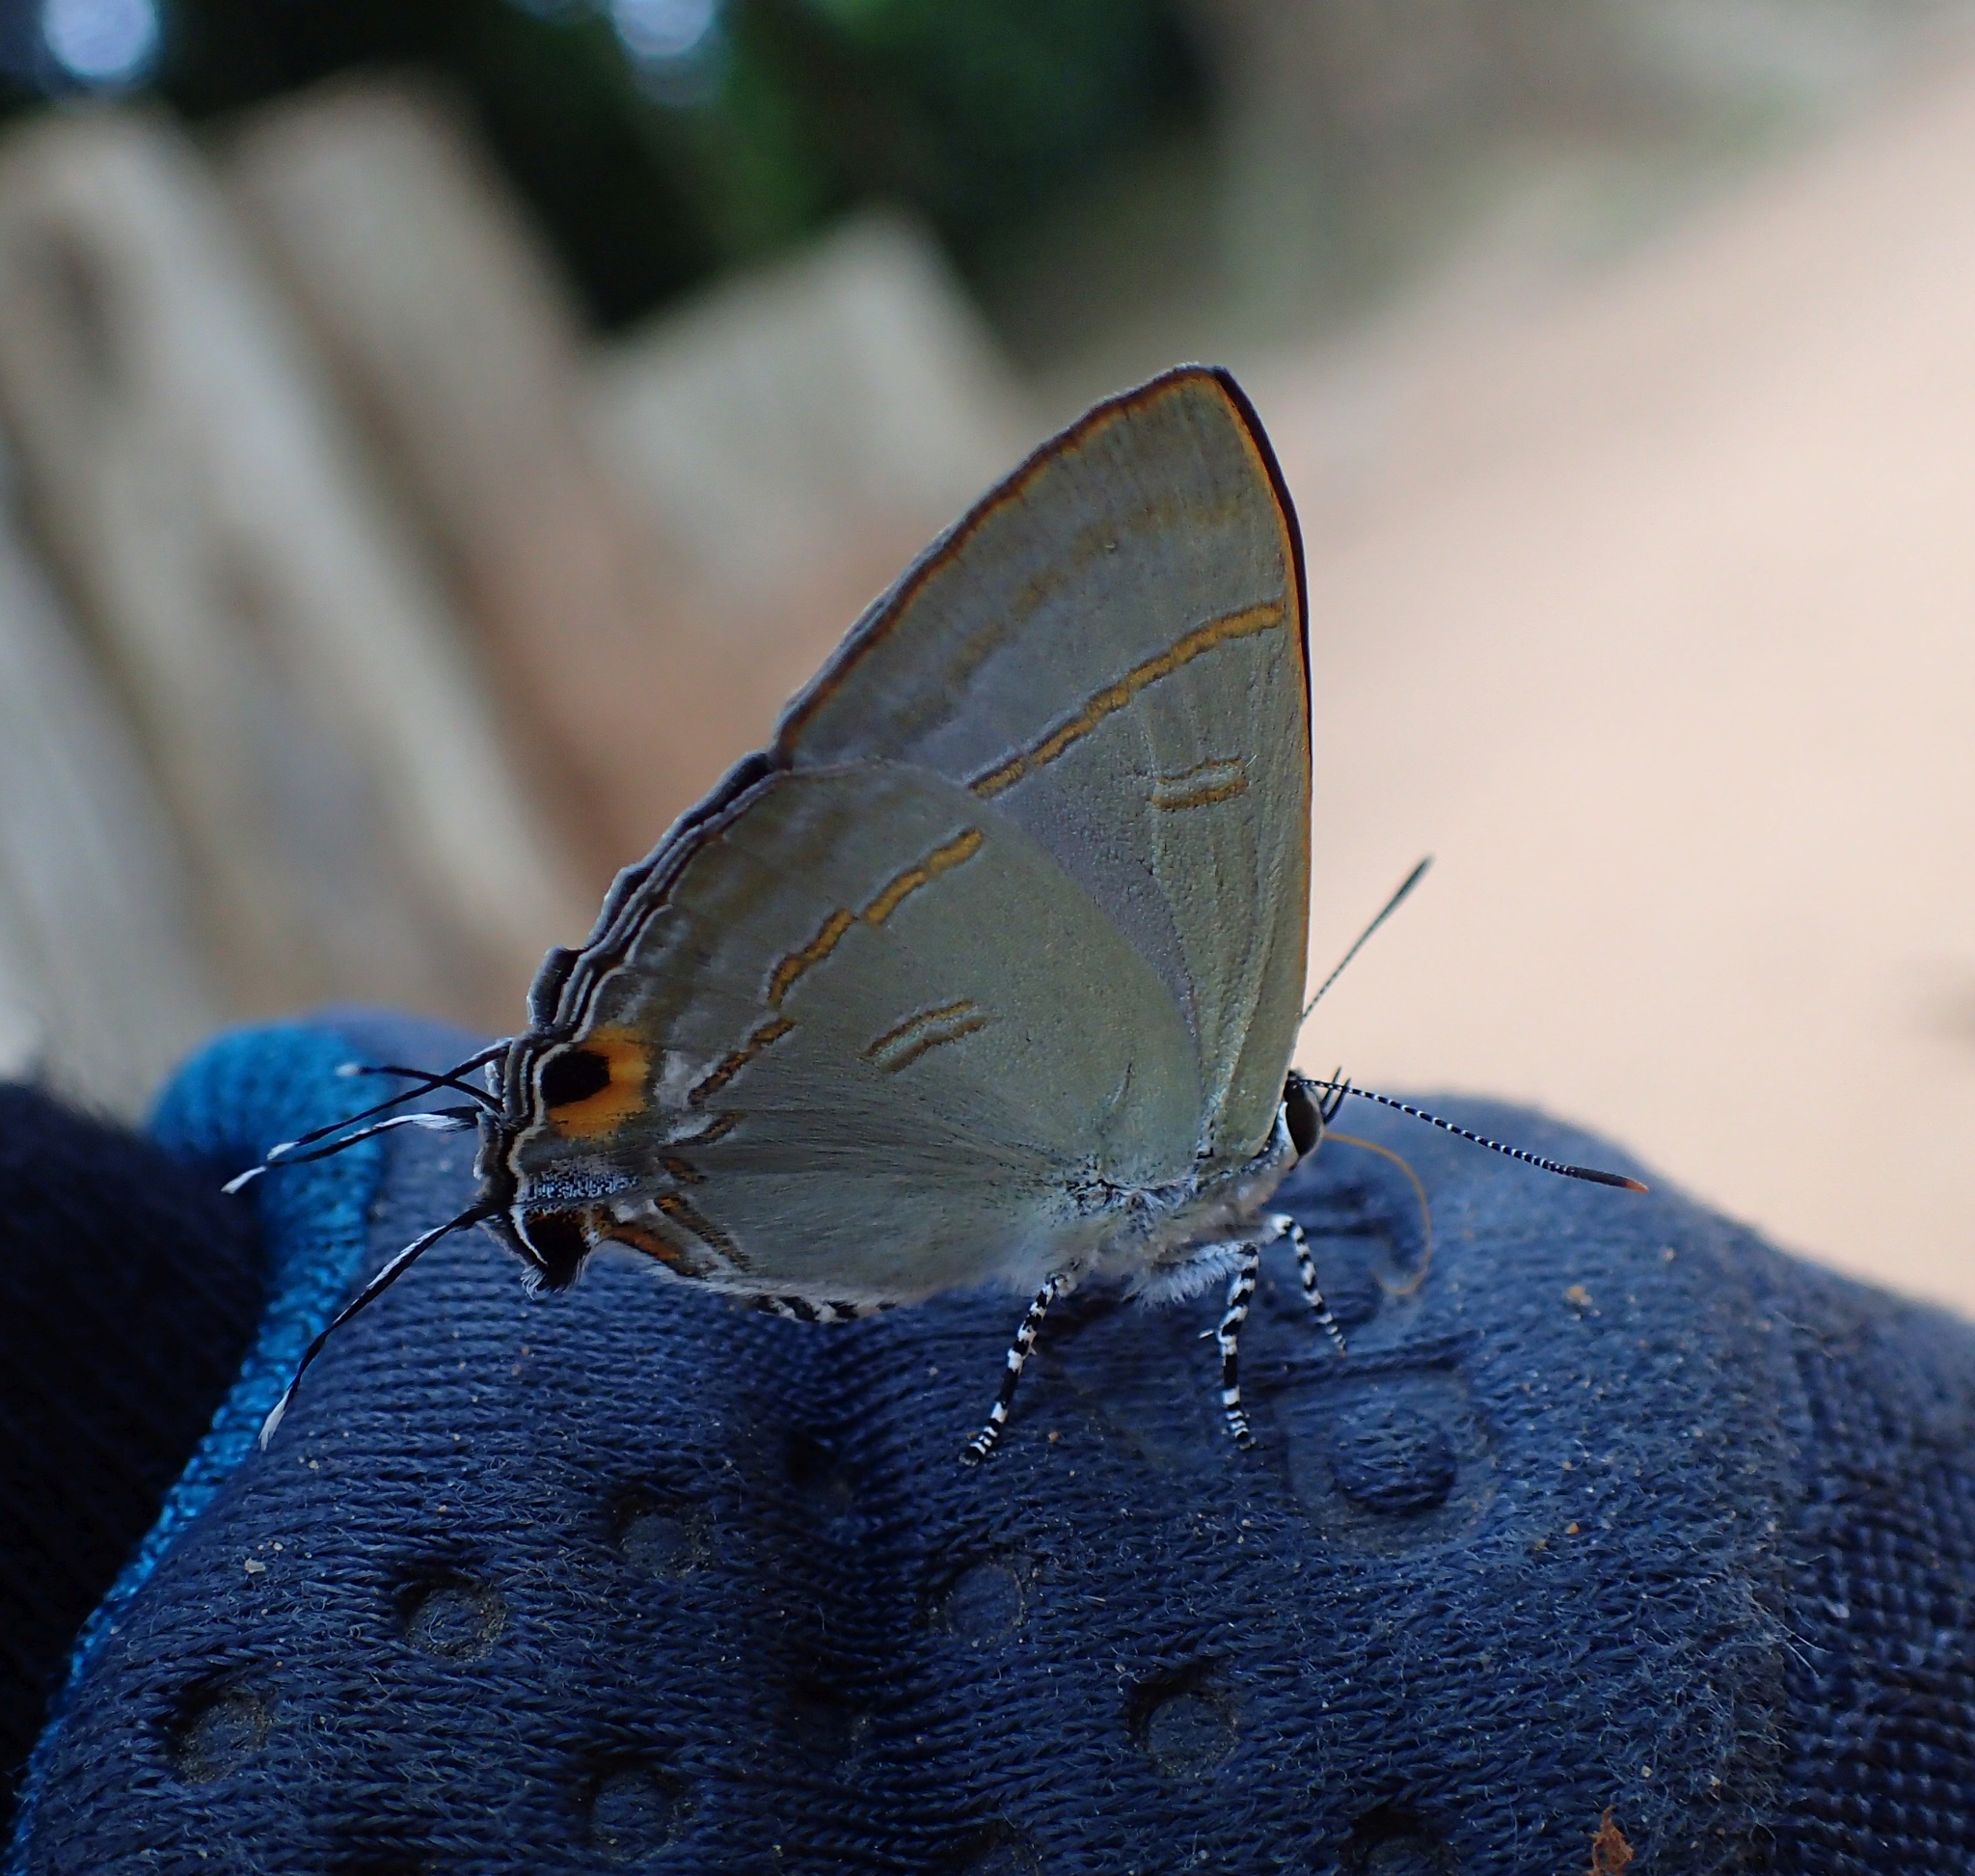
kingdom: Animalia
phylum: Arthropoda
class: Insecta
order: Lepidoptera
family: Lycaenidae
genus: Hypolycaena
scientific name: Hypolycaena erylus
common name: Common tit
